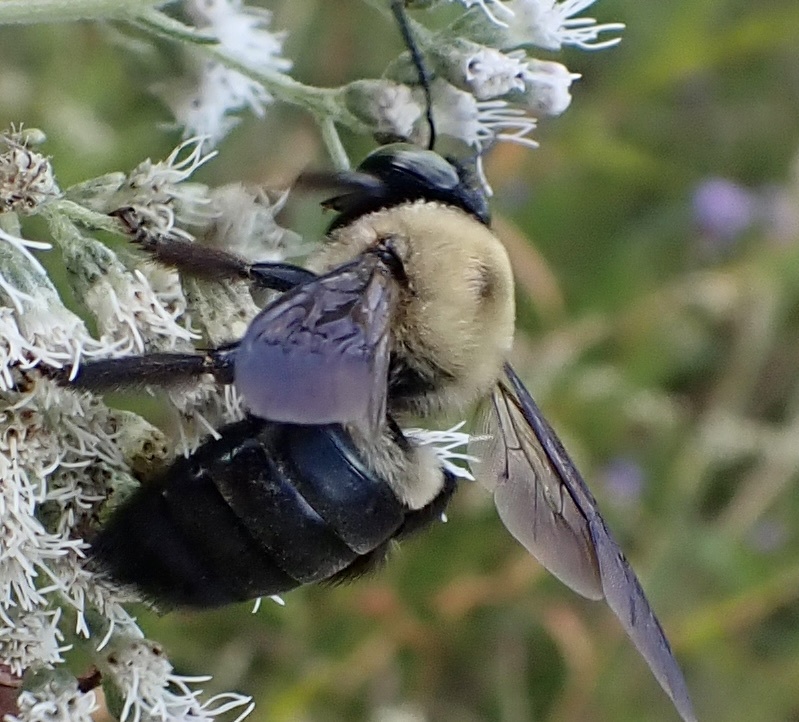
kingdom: Animalia
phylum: Arthropoda
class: Insecta
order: Hymenoptera
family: Apidae
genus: Xylocopa
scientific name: Xylocopa virginica
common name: Carpenter bee
